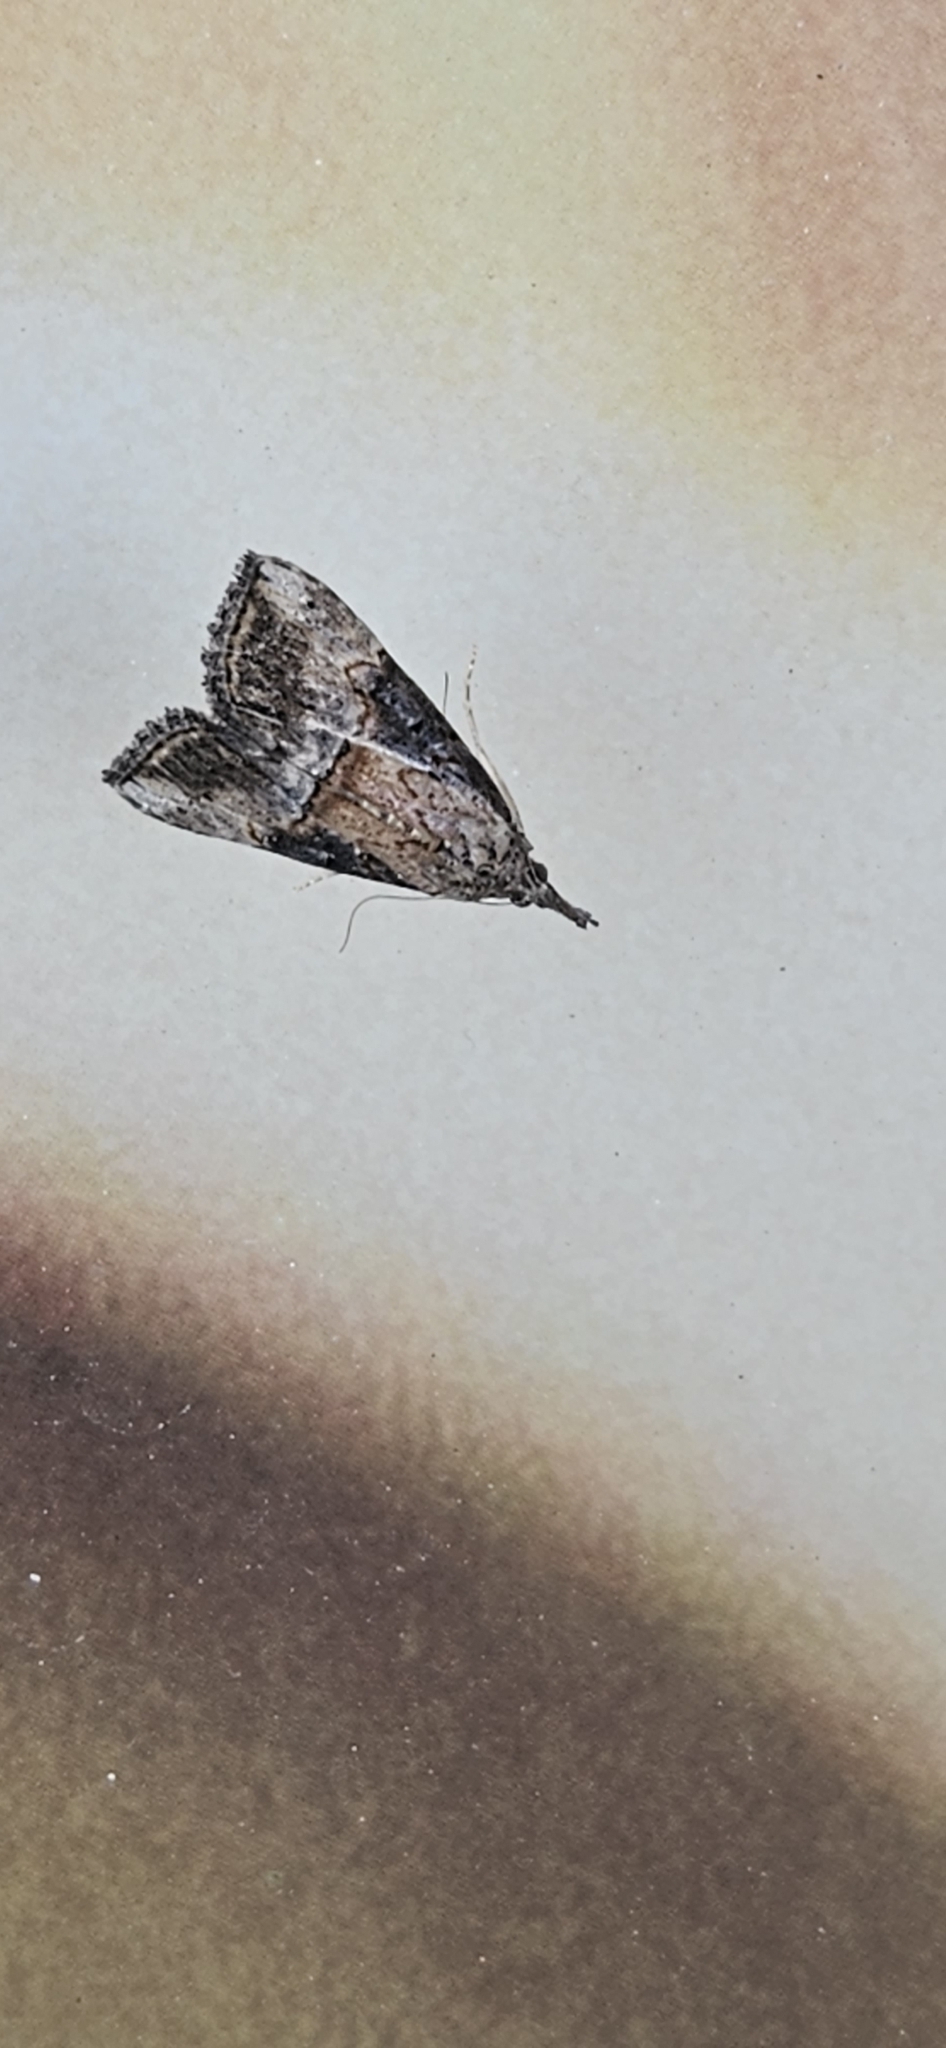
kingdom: Animalia
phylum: Arthropoda
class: Insecta
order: Lepidoptera
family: Erebidae
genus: Hypena
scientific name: Hypena scabra
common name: Green cloverworm
